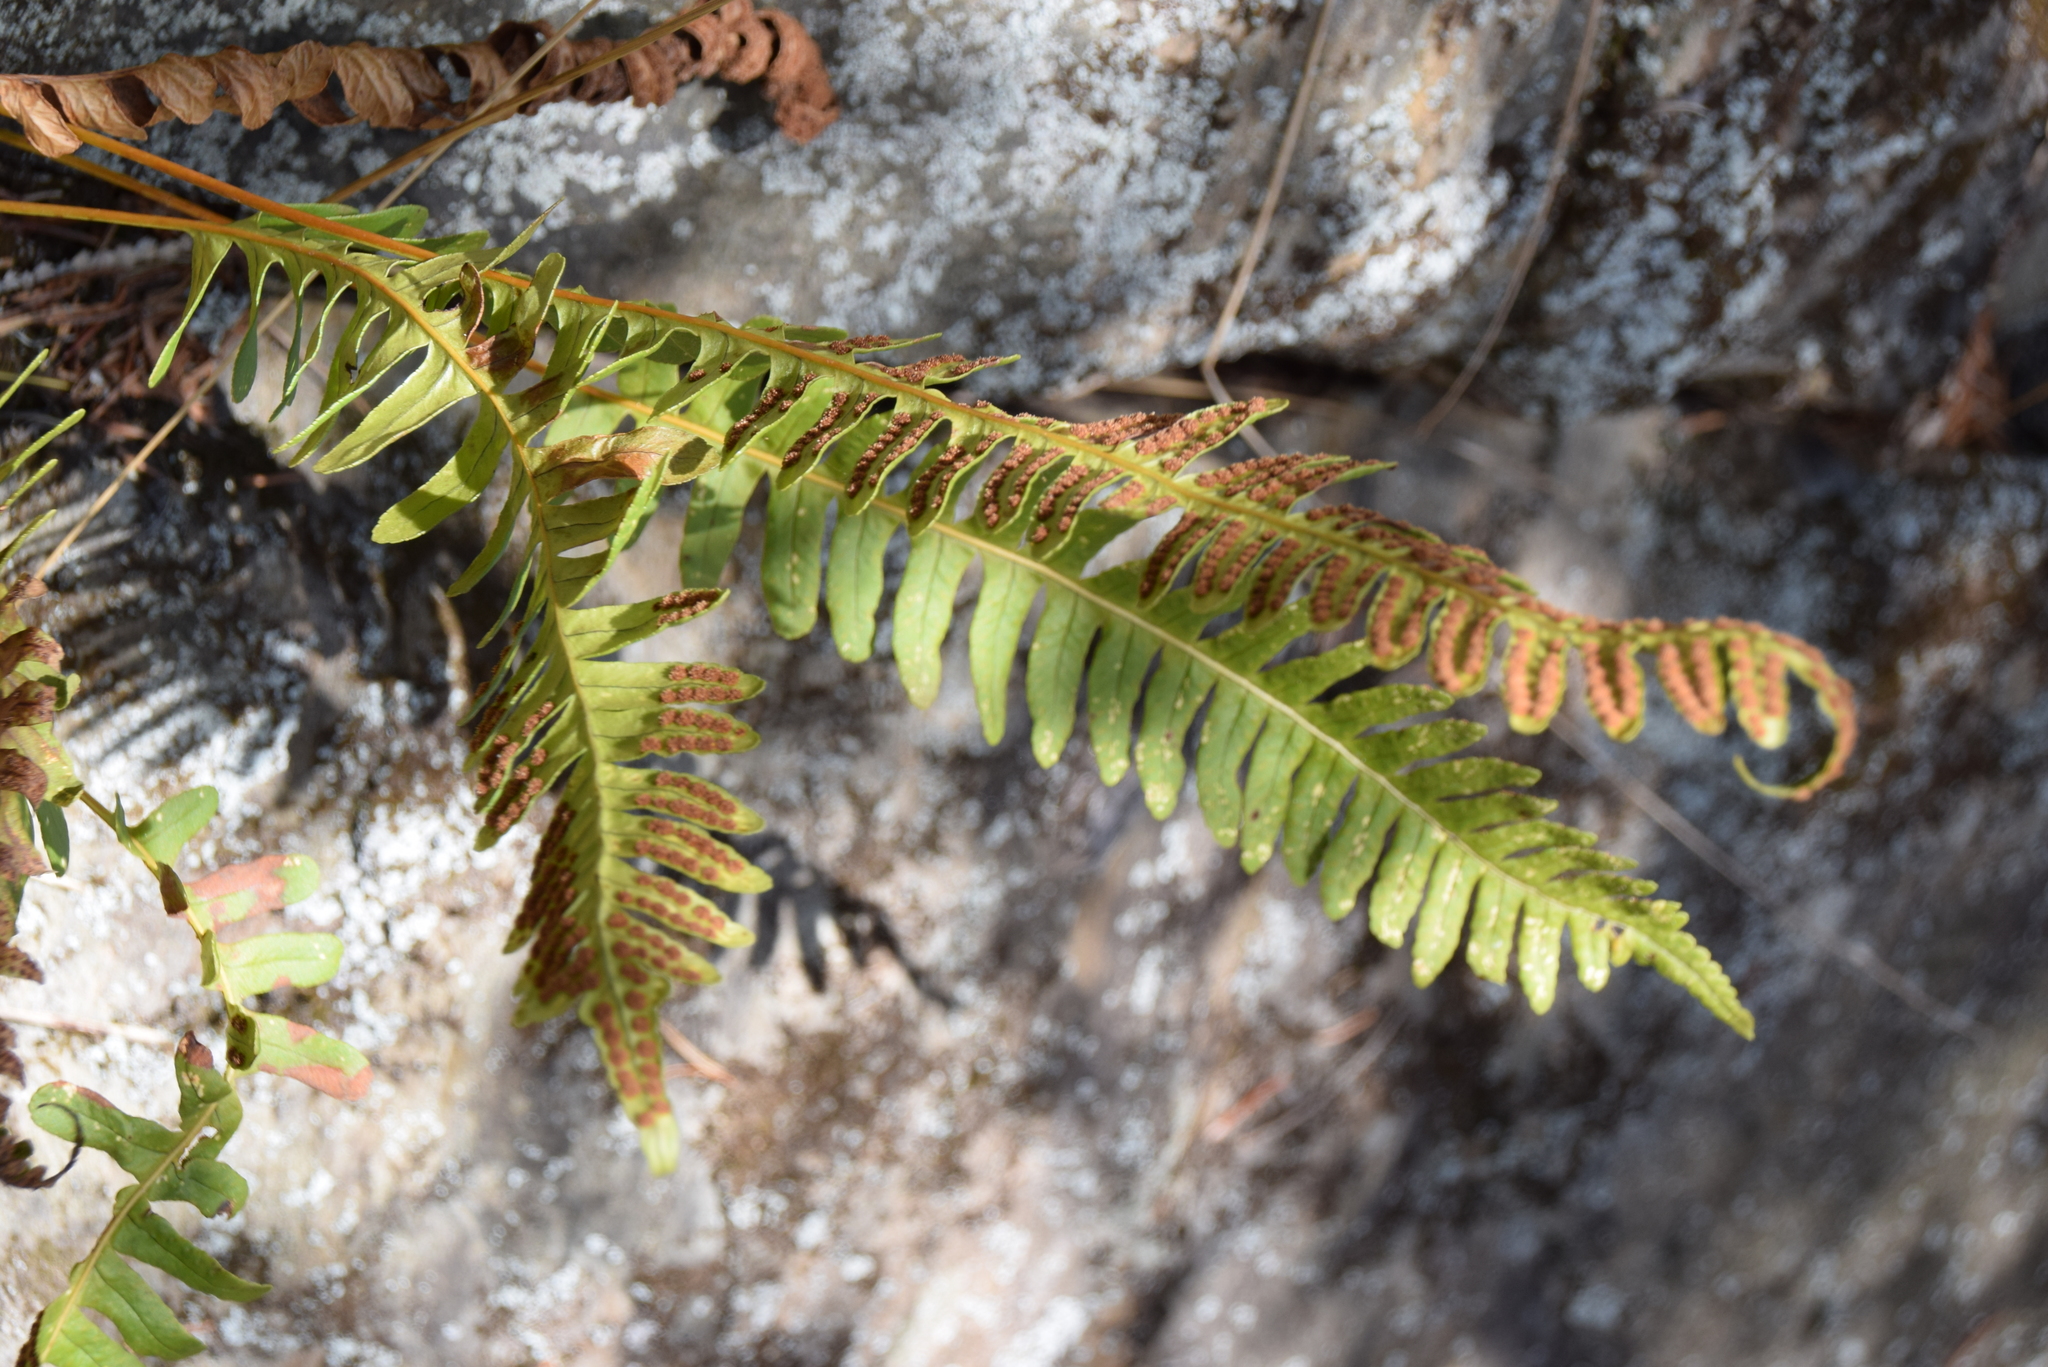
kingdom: Plantae
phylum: Tracheophyta
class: Polypodiopsida
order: Polypodiales
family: Polypodiaceae
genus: Polypodium
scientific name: Polypodium virginianum
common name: American wall fern
